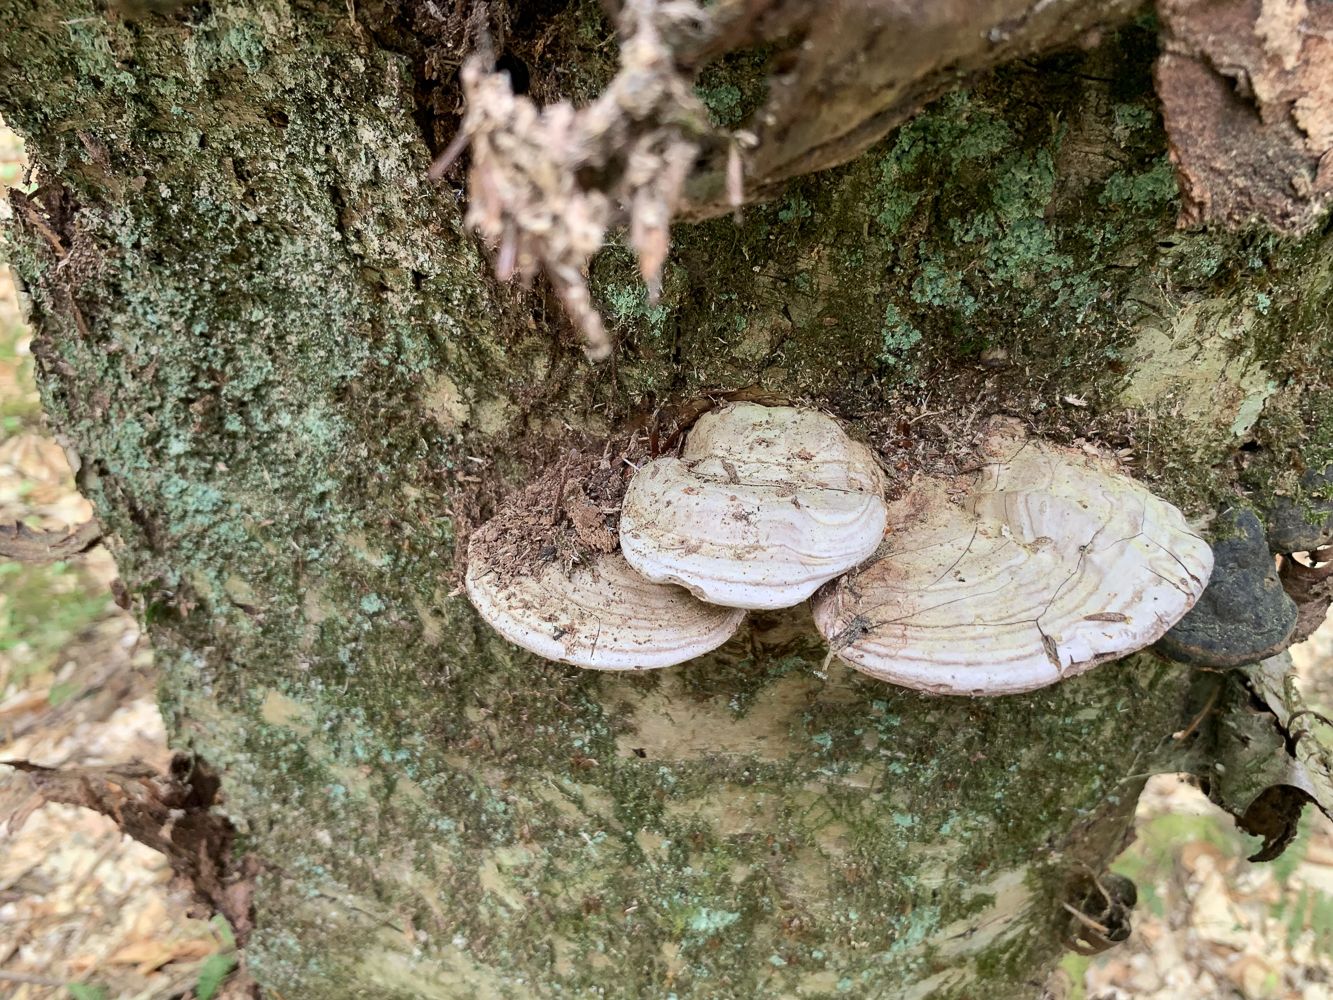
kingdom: Fungi
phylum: Basidiomycota
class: Agaricomycetes
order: Polyporales
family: Polyporaceae
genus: Ganoderma
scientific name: Ganoderma applanatum
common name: Artist's bracket
